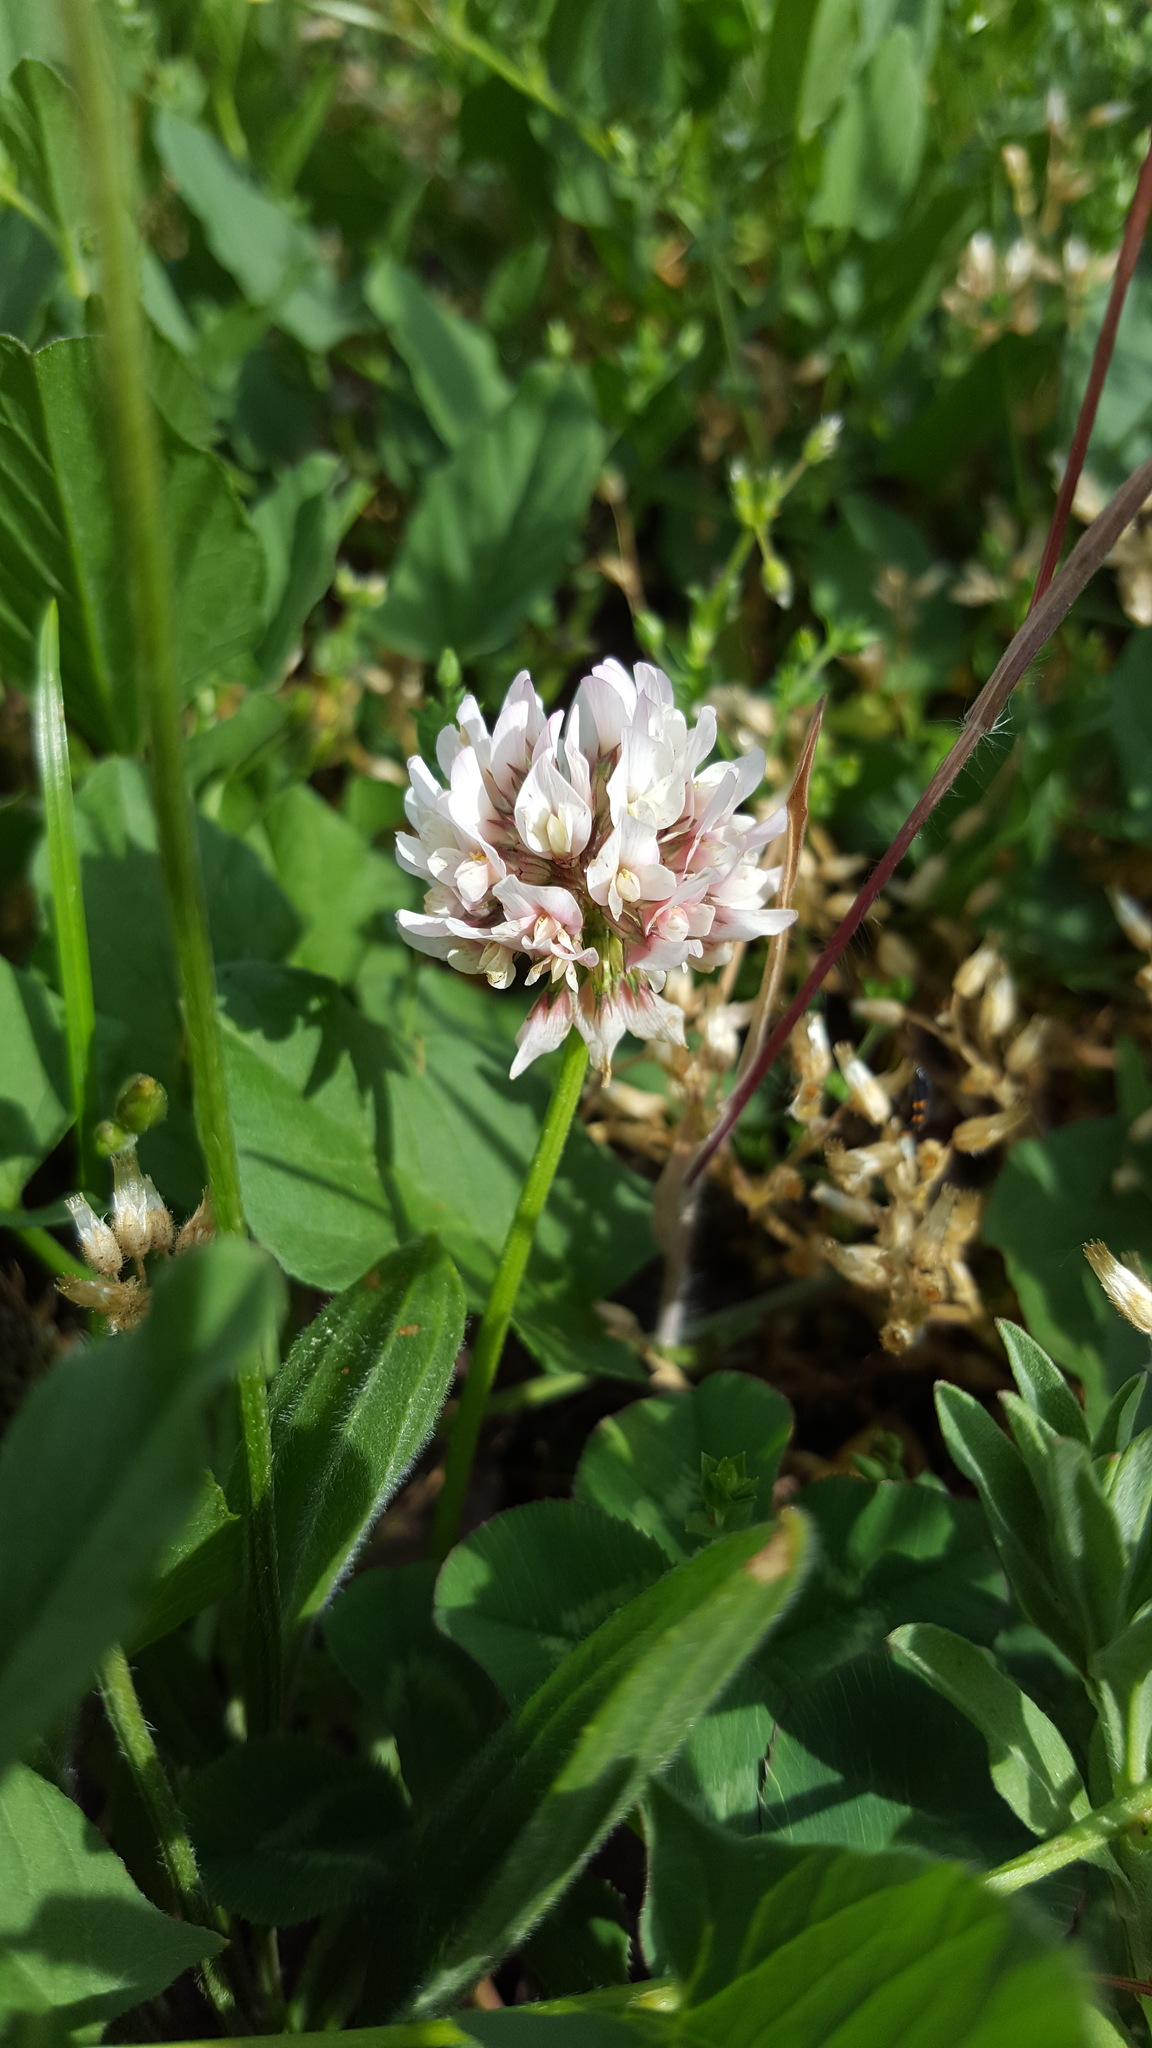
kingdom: Plantae
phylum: Tracheophyta
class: Magnoliopsida
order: Fabales
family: Fabaceae
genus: Trifolium
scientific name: Trifolium repens
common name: White clover
